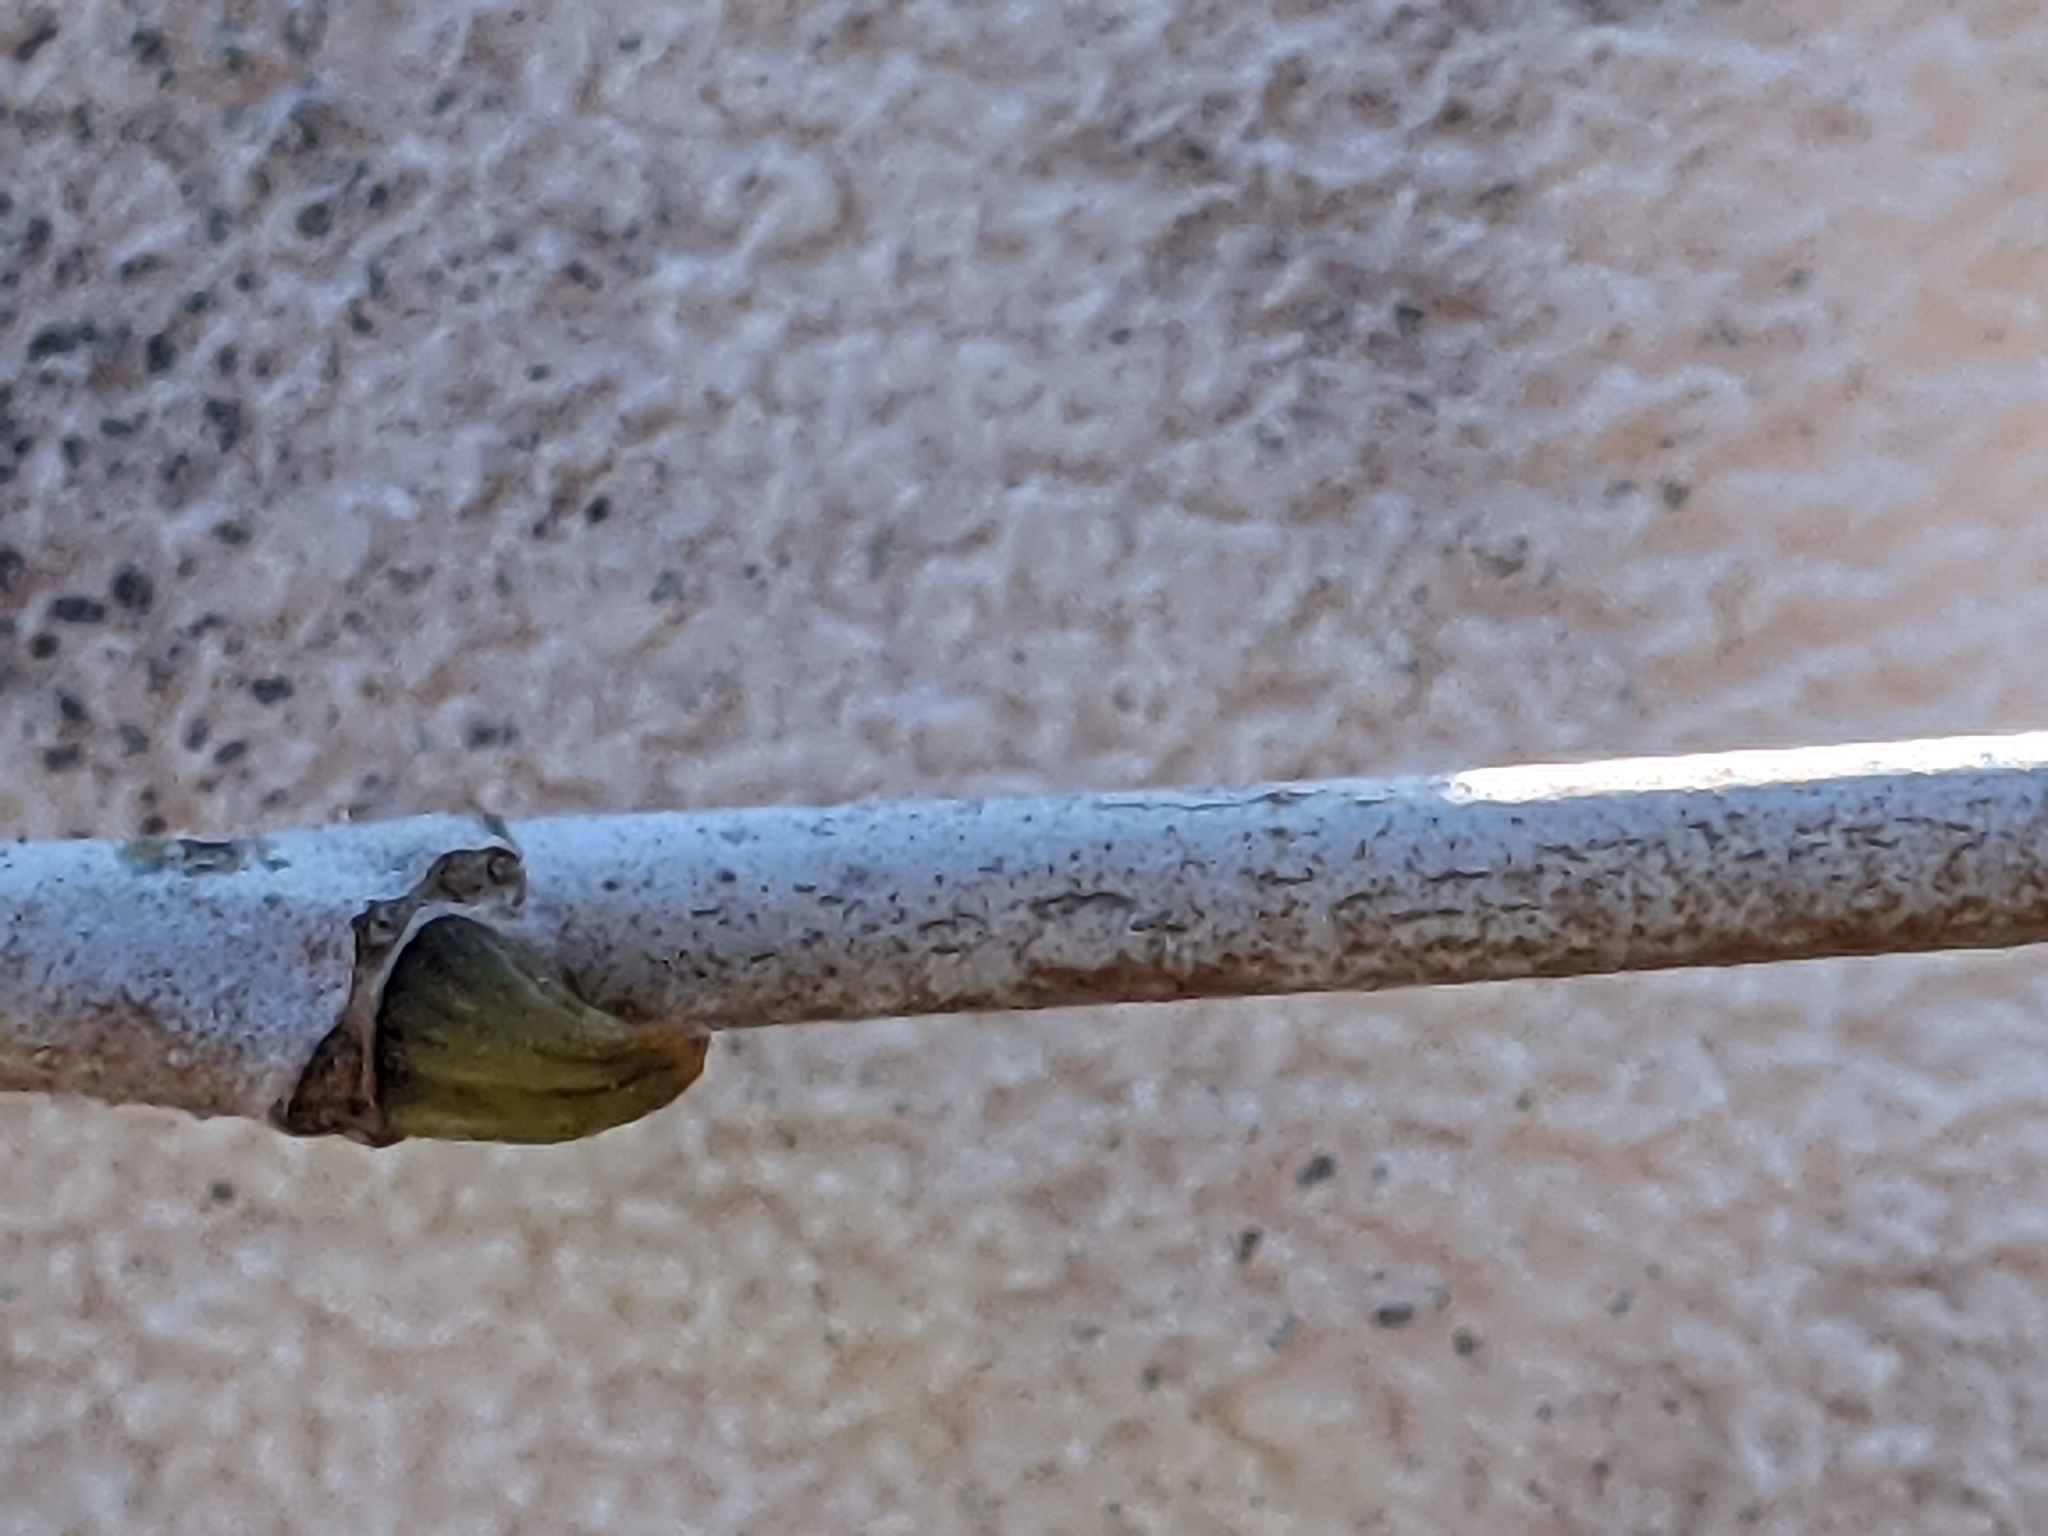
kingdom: Plantae
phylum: Tracheophyta
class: Magnoliopsida
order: Proteales
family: Platanaceae
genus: Platanus
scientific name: Platanus occidentalis
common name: American sycamore
